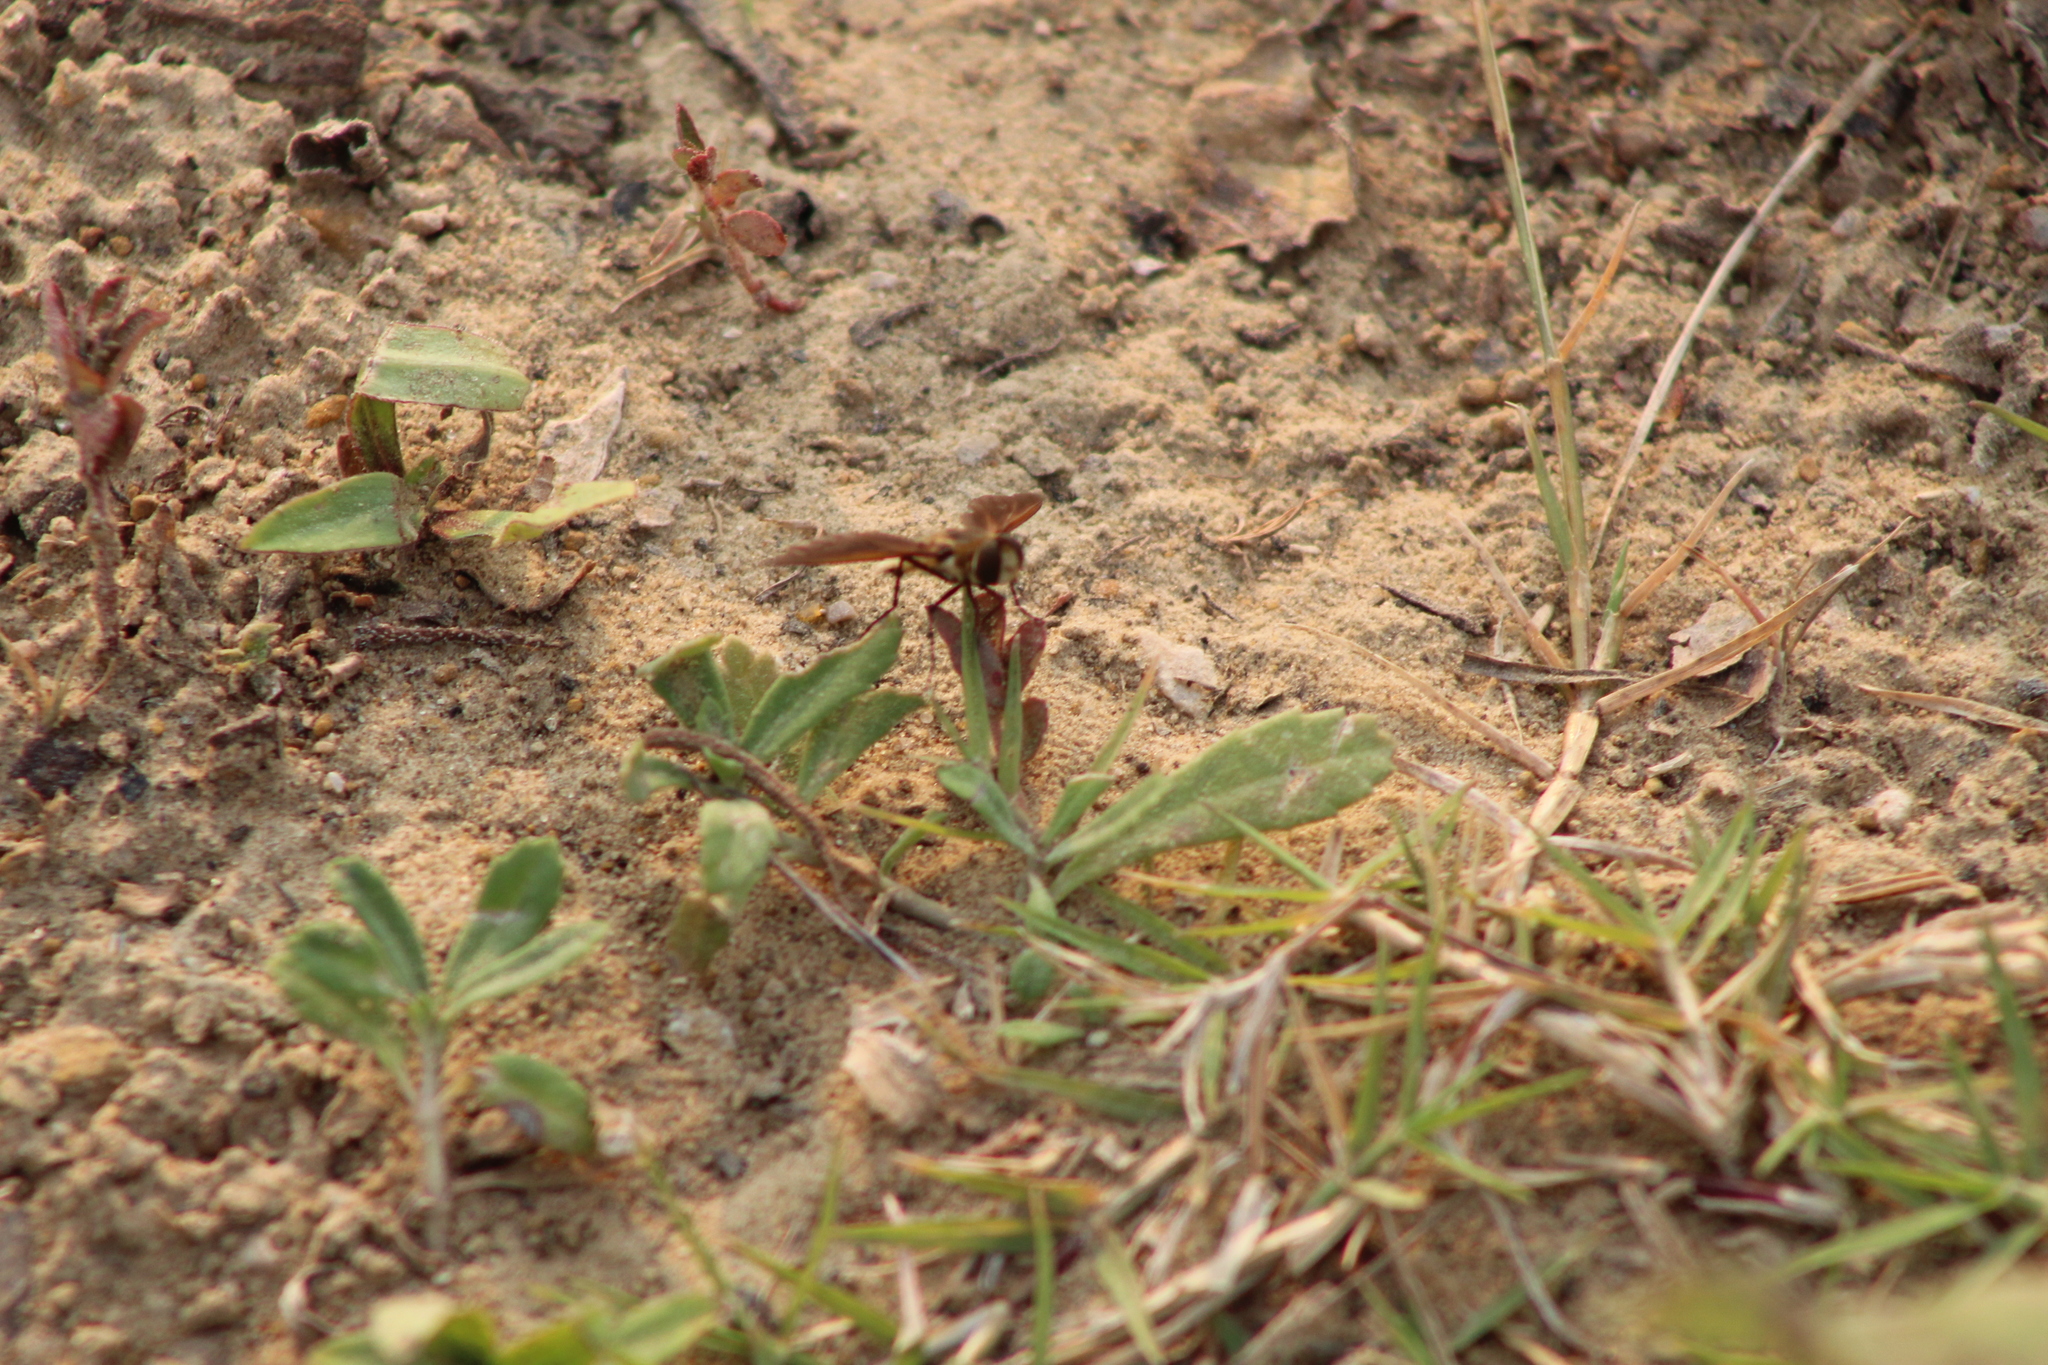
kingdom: Animalia
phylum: Arthropoda
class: Insecta
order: Diptera
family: Bombyliidae
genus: Poecilanthrax
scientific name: Poecilanthrax lucifer
